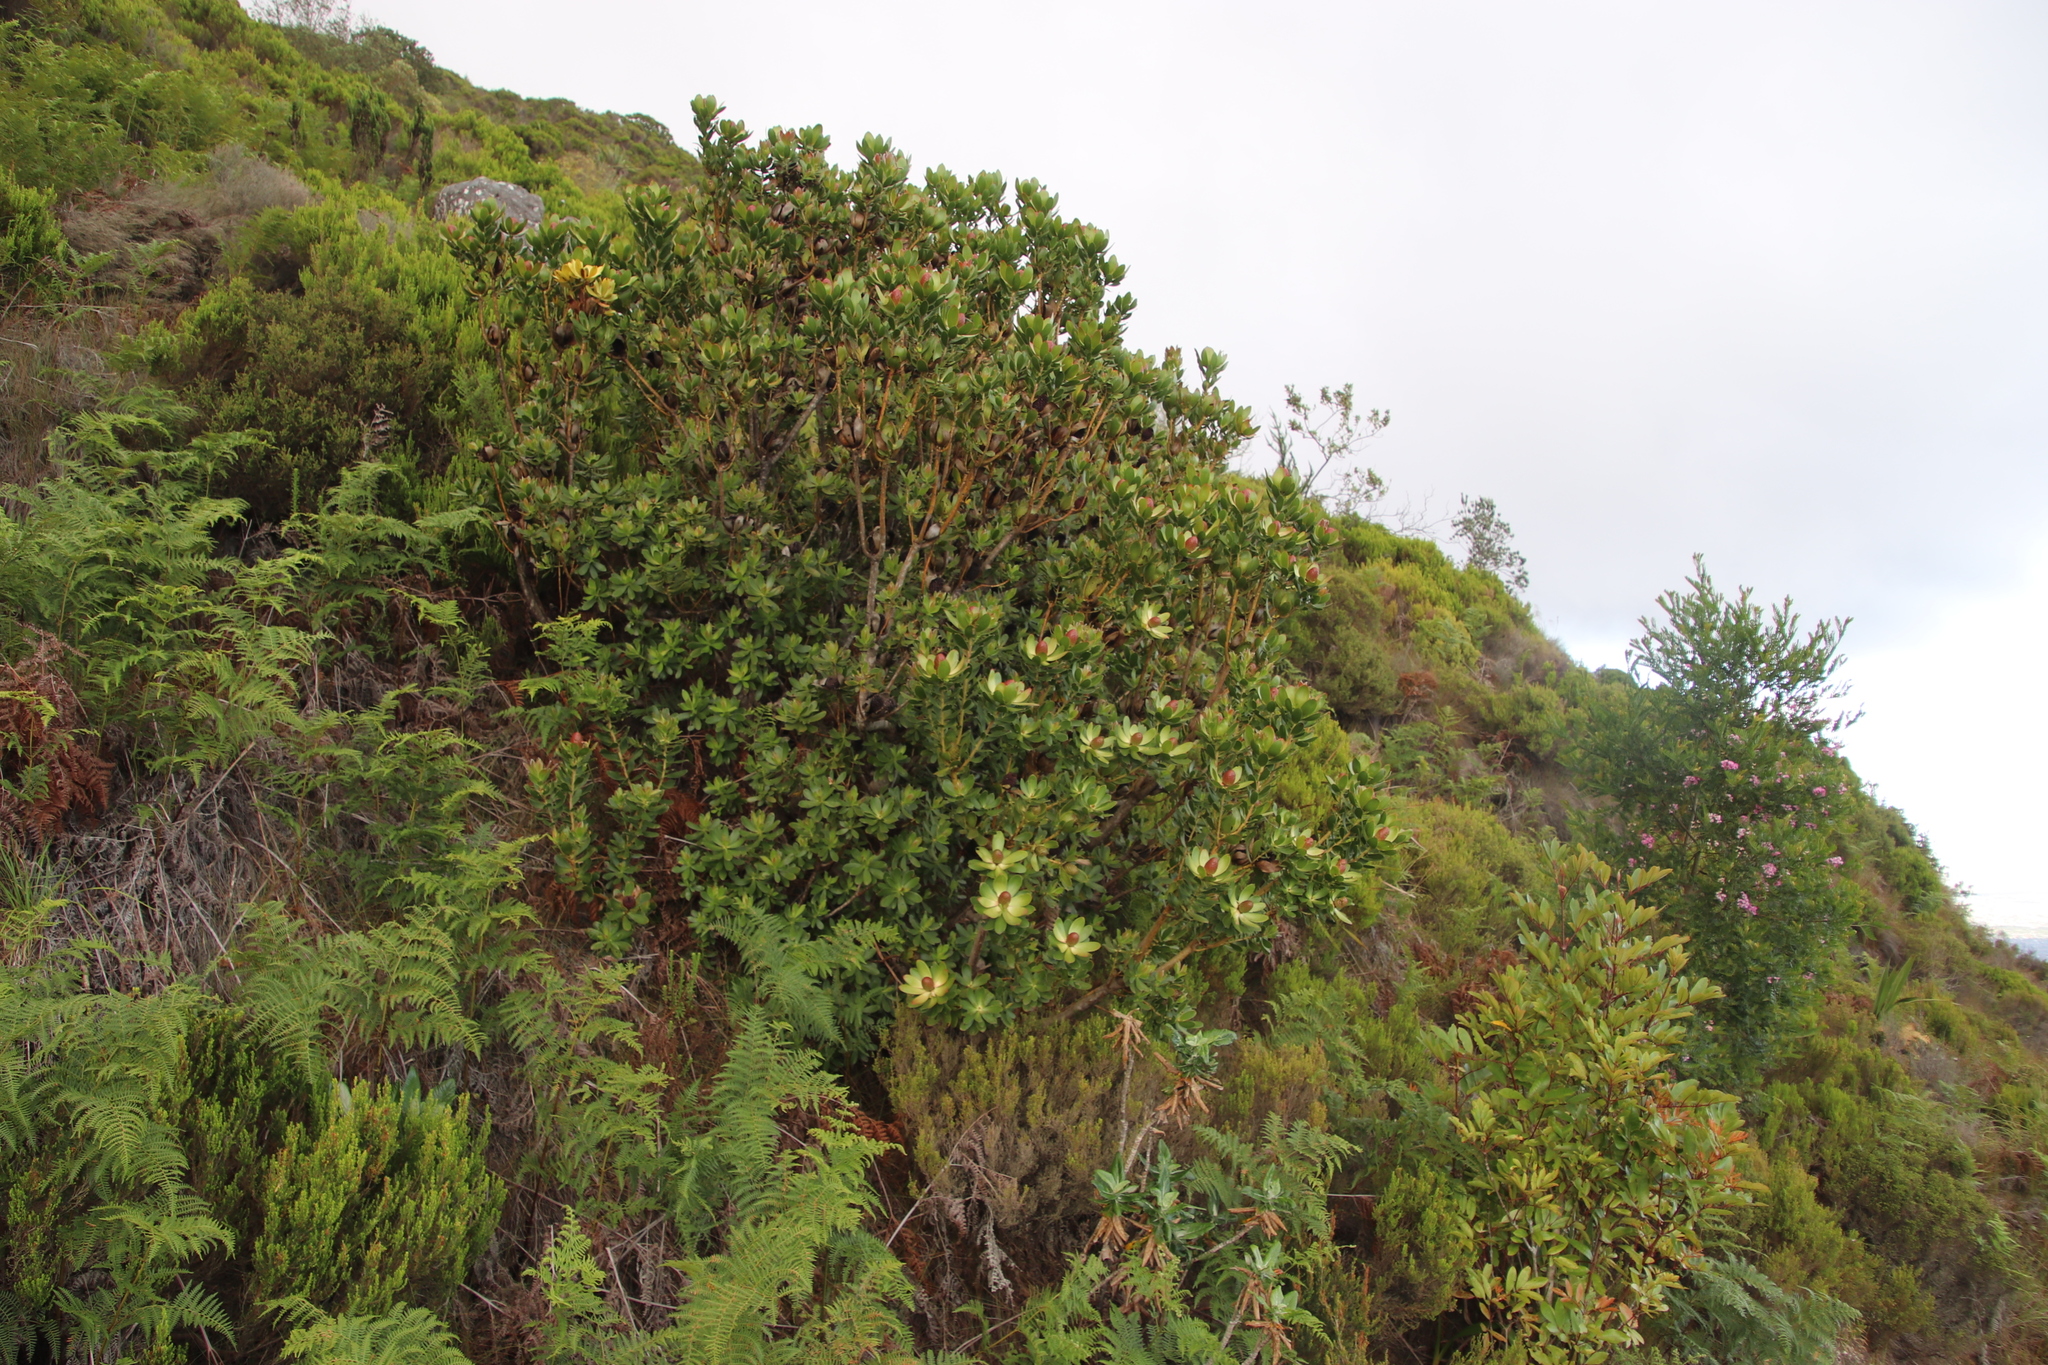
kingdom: Plantae
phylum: Tracheophyta
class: Magnoliopsida
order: Proteales
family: Proteaceae
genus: Leucadendron
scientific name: Leucadendron strobilinum
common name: Mountain rose
